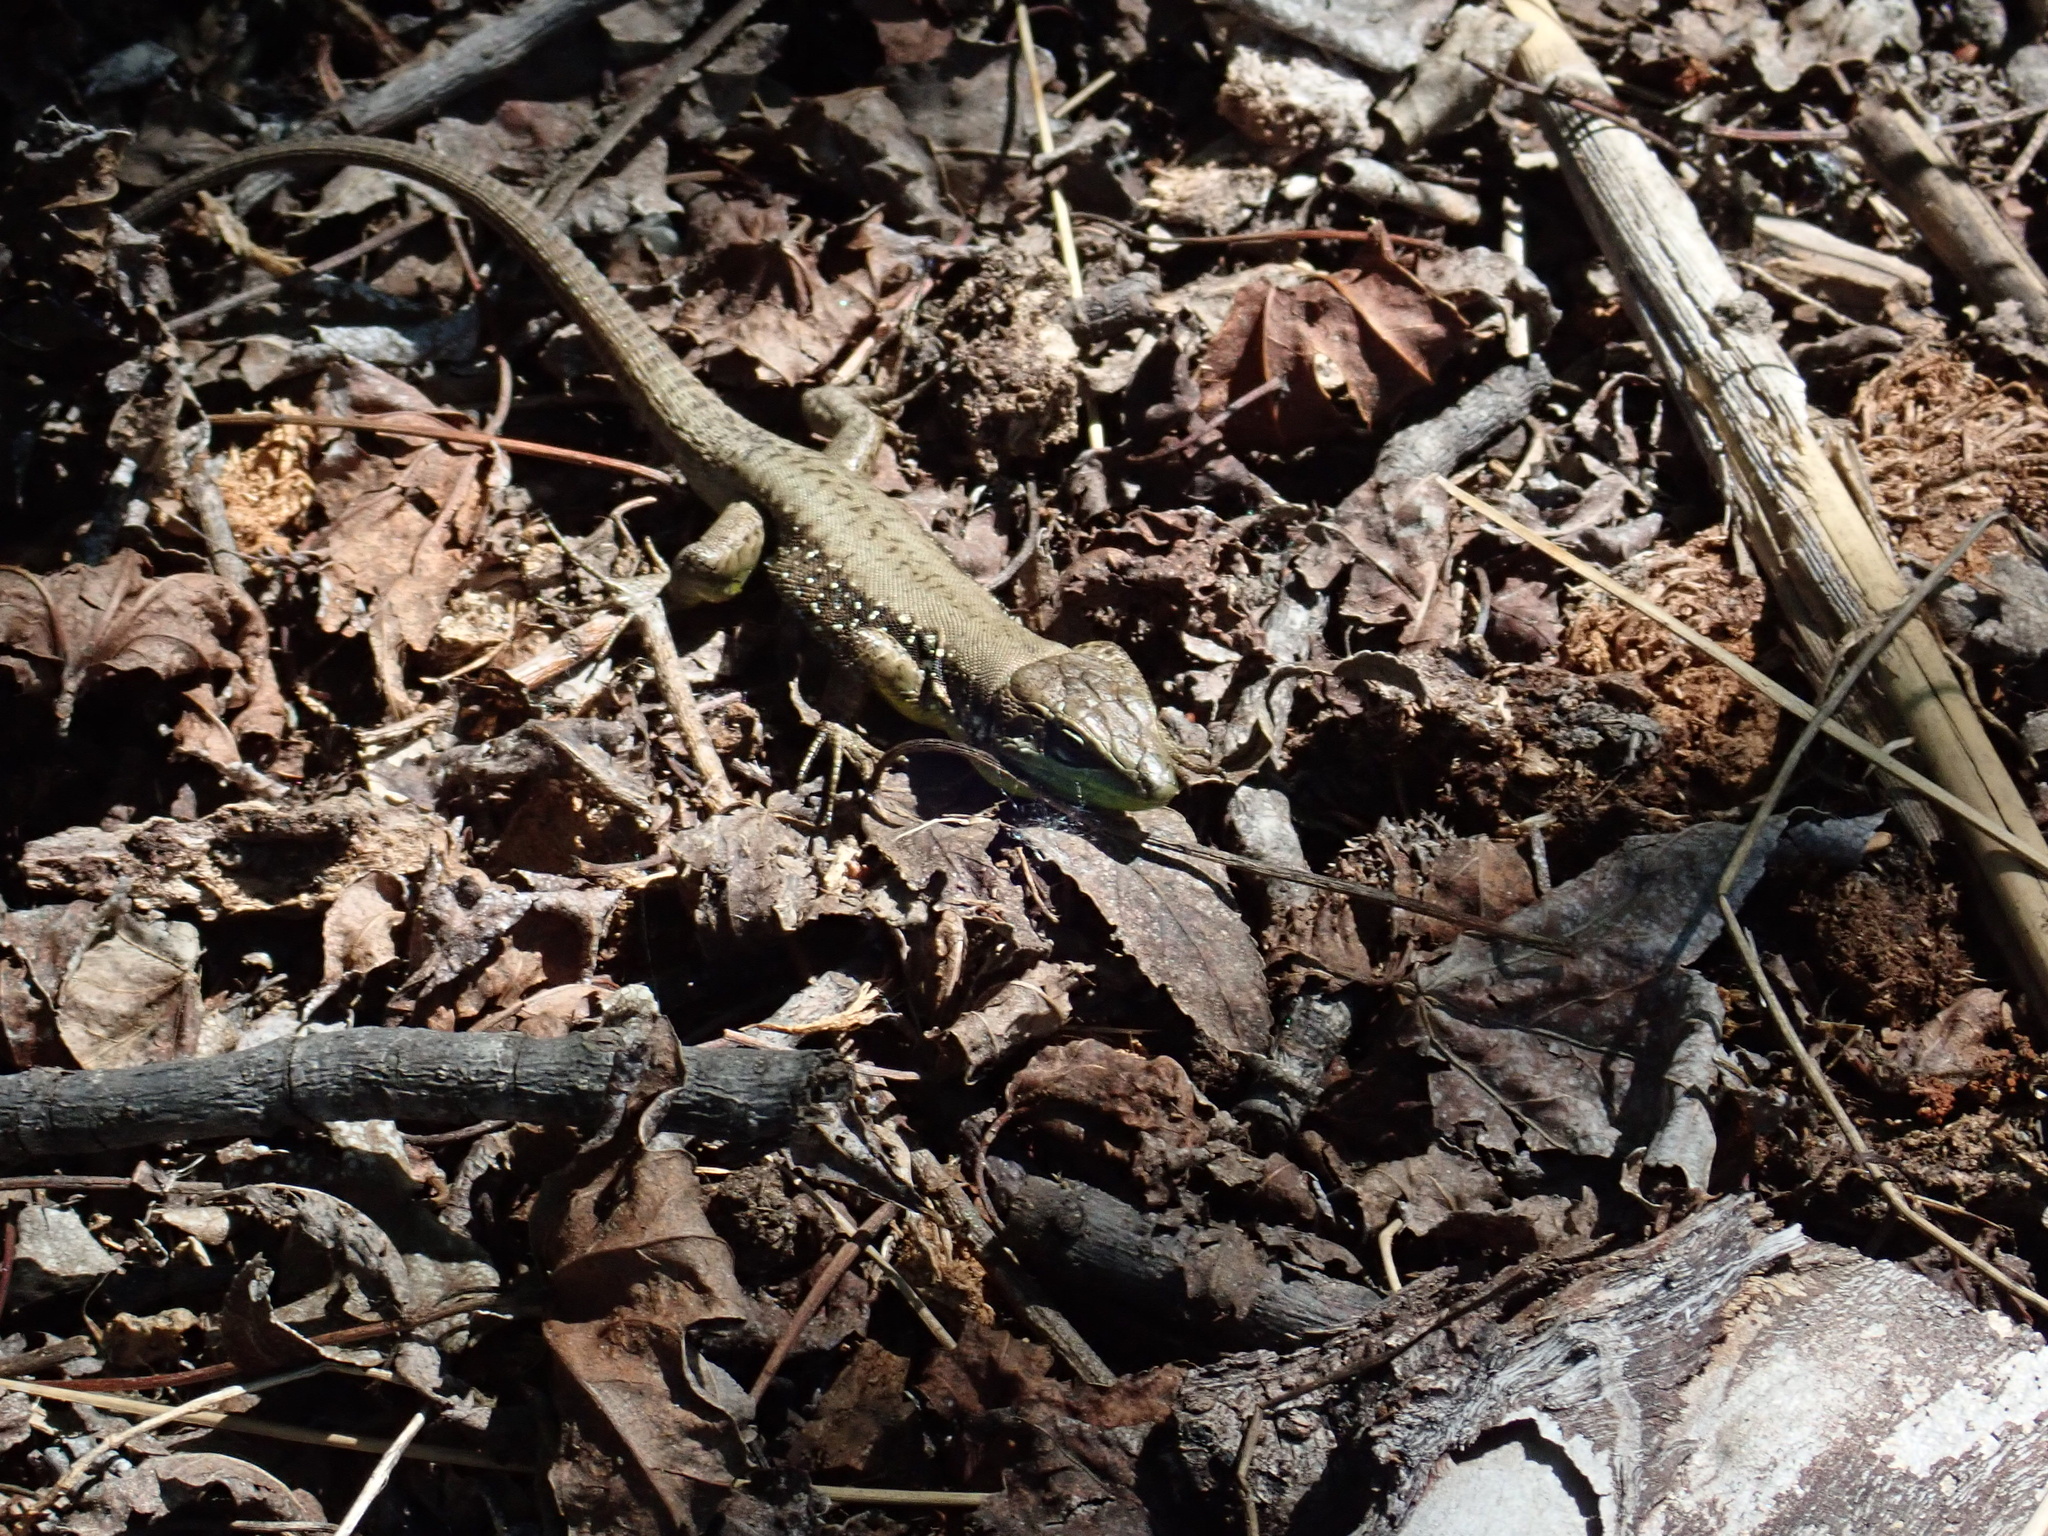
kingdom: Animalia
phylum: Chordata
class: Squamata
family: Lacertidae
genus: Phoenicolacerta
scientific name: Phoenicolacerta laevis
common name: Lebanon lizard
